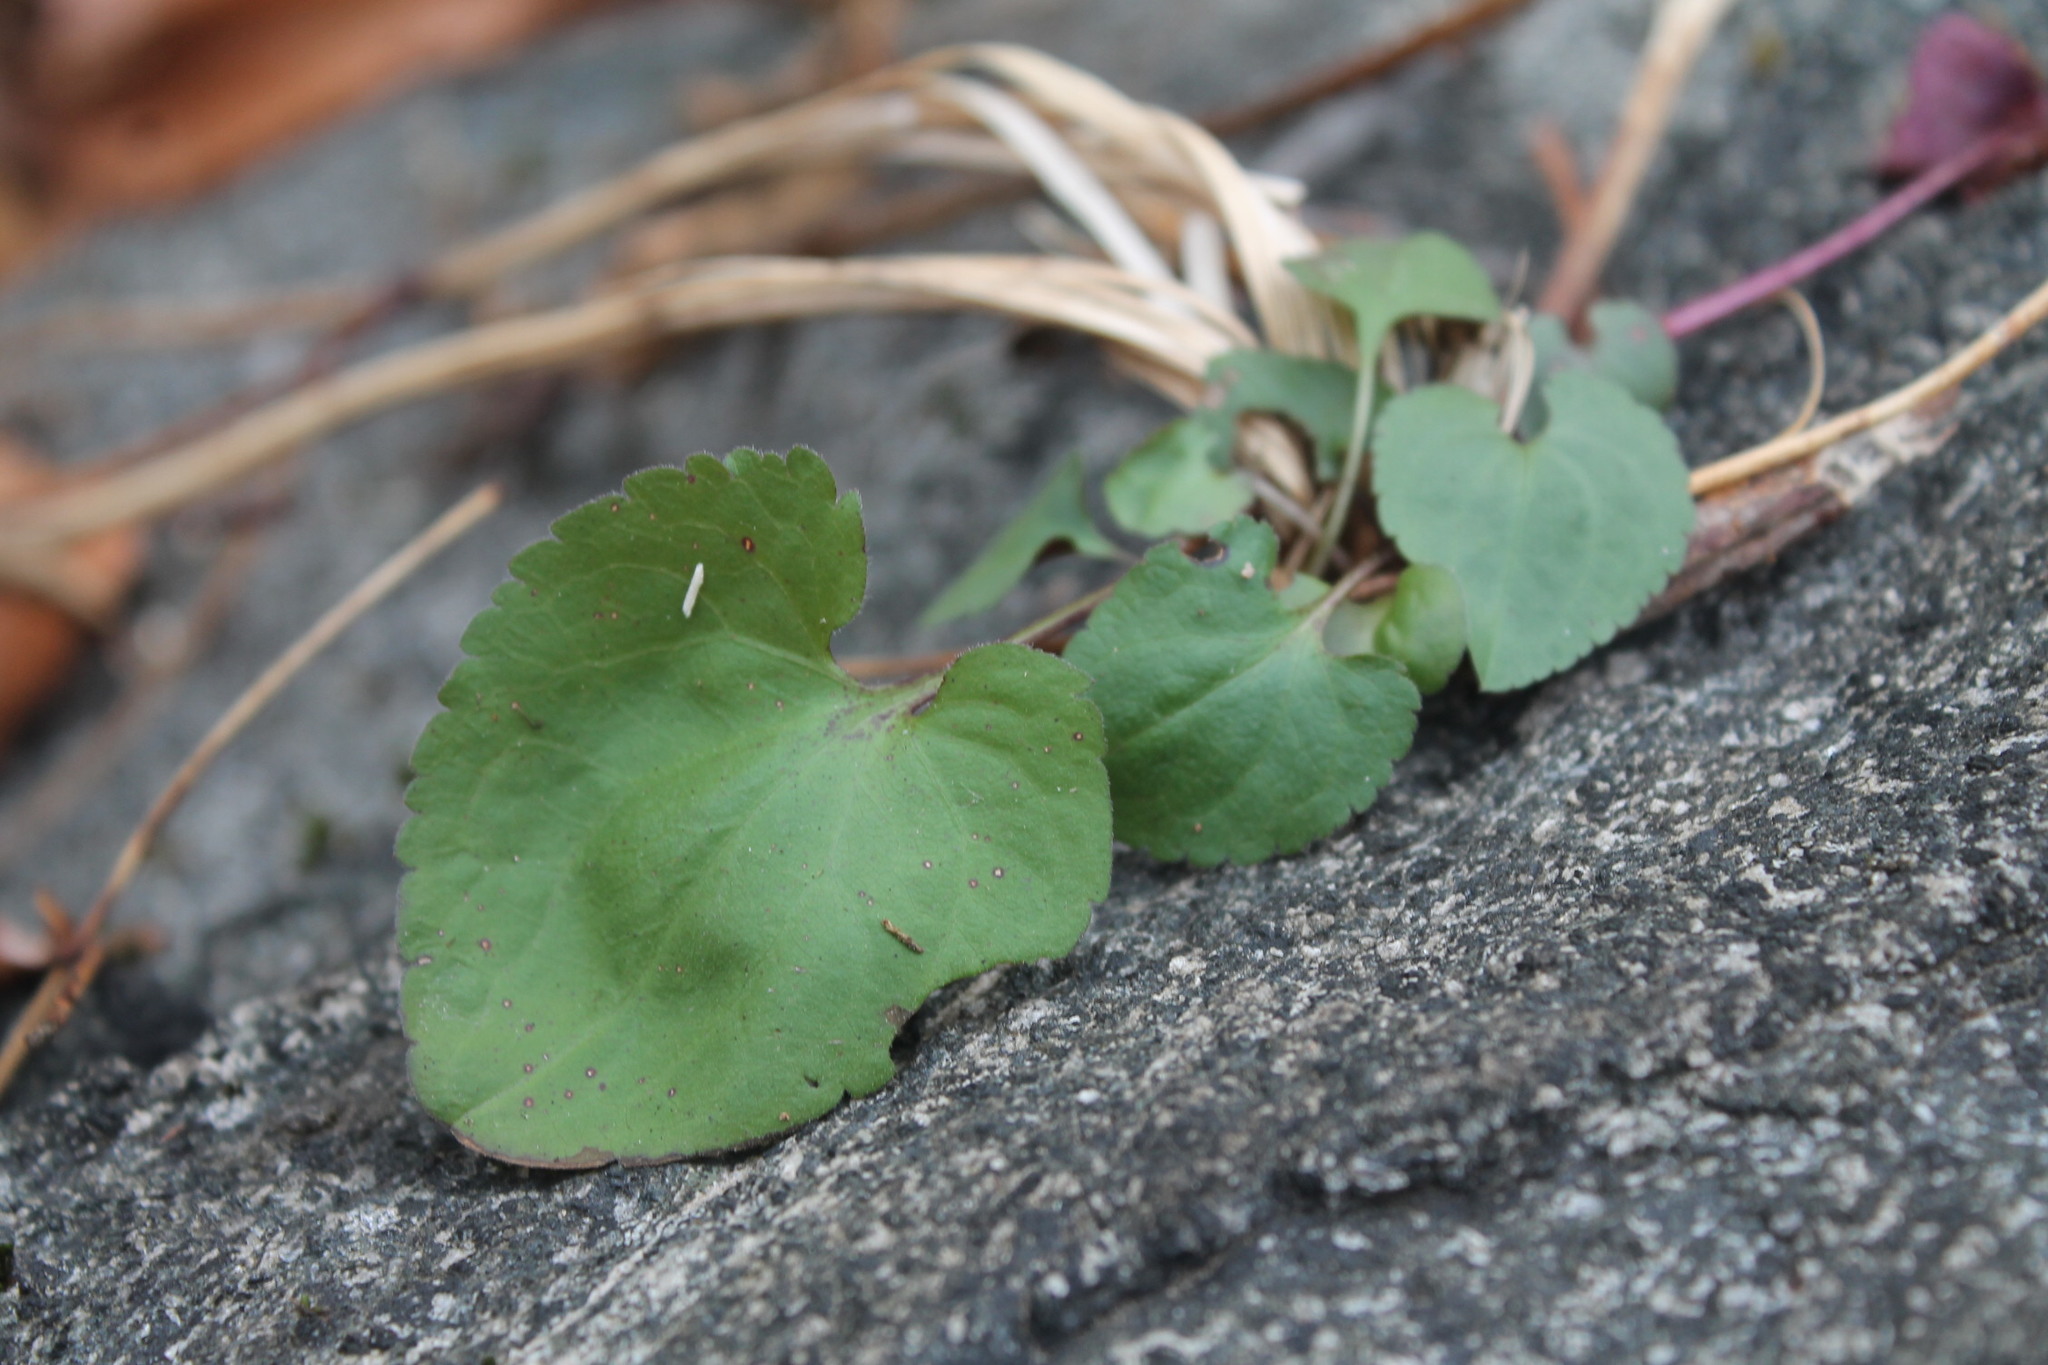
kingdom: Plantae
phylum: Tracheophyta
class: Magnoliopsida
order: Malpighiales
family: Violaceae
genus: Viola
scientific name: Viola sororia
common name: Dooryard violet
